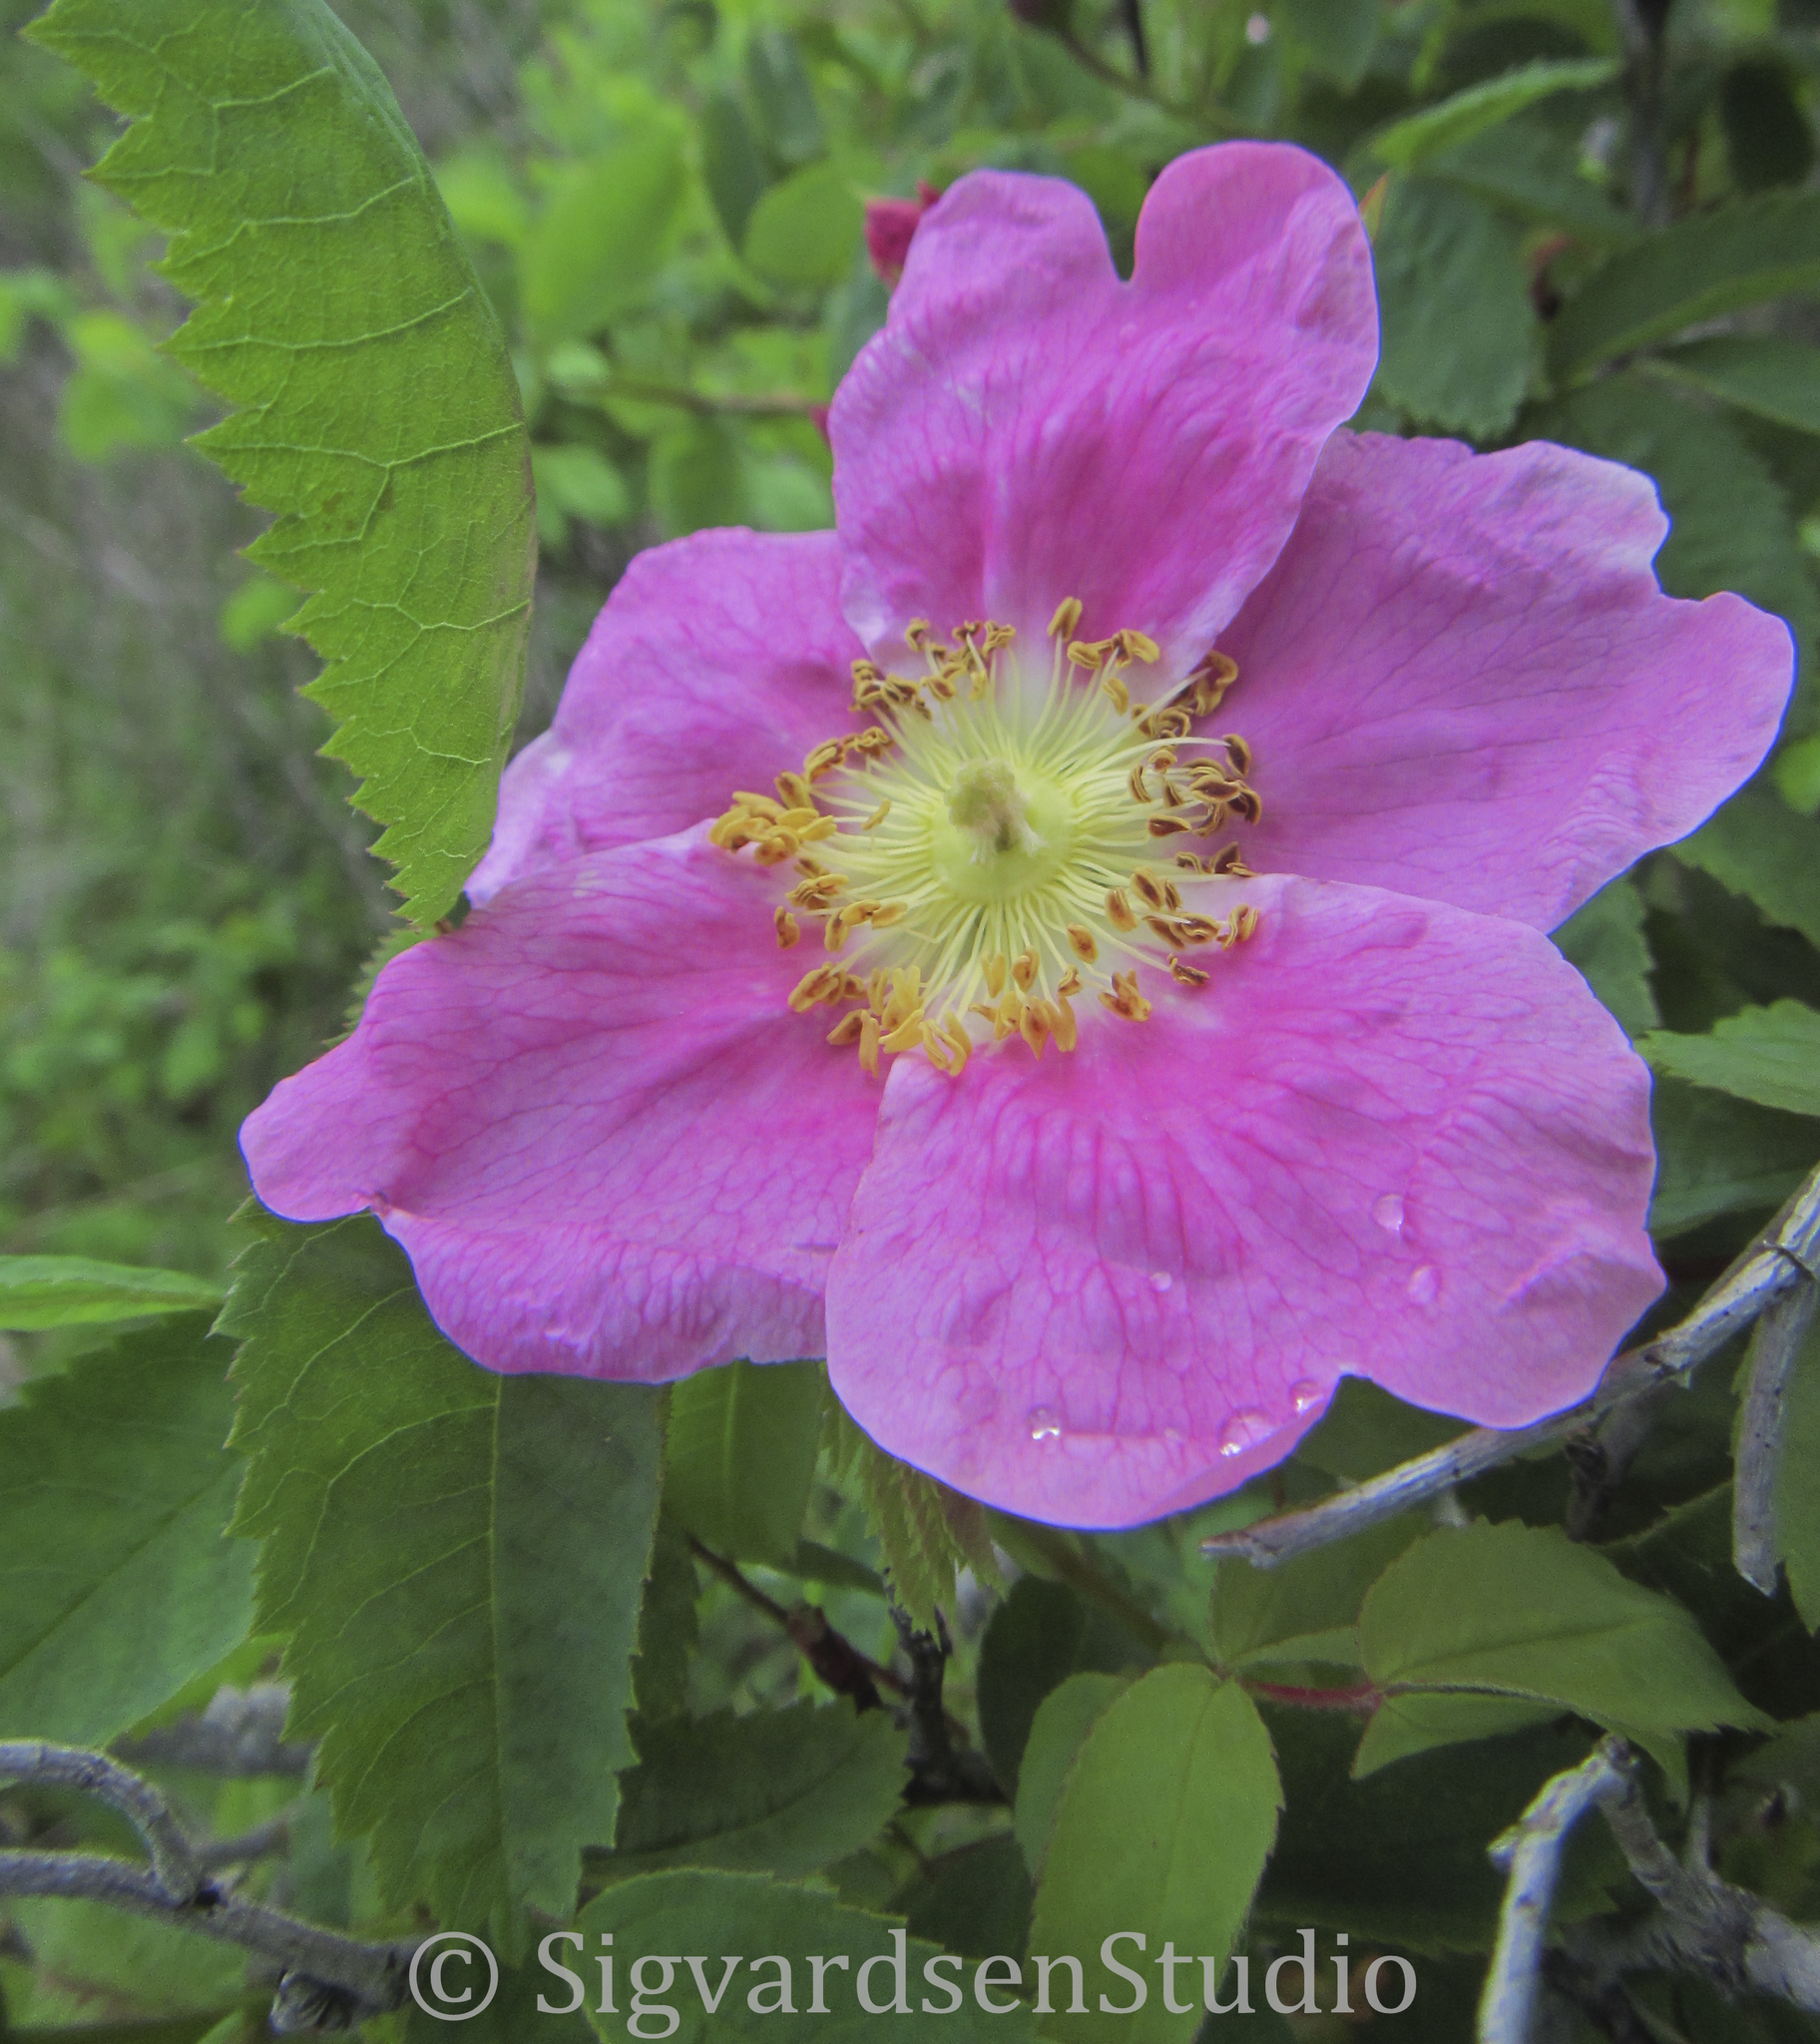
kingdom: Plantae
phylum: Tracheophyta
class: Magnoliopsida
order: Rosales
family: Rosaceae
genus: Rosa
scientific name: Rosa nutkana
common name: Nootka rose
